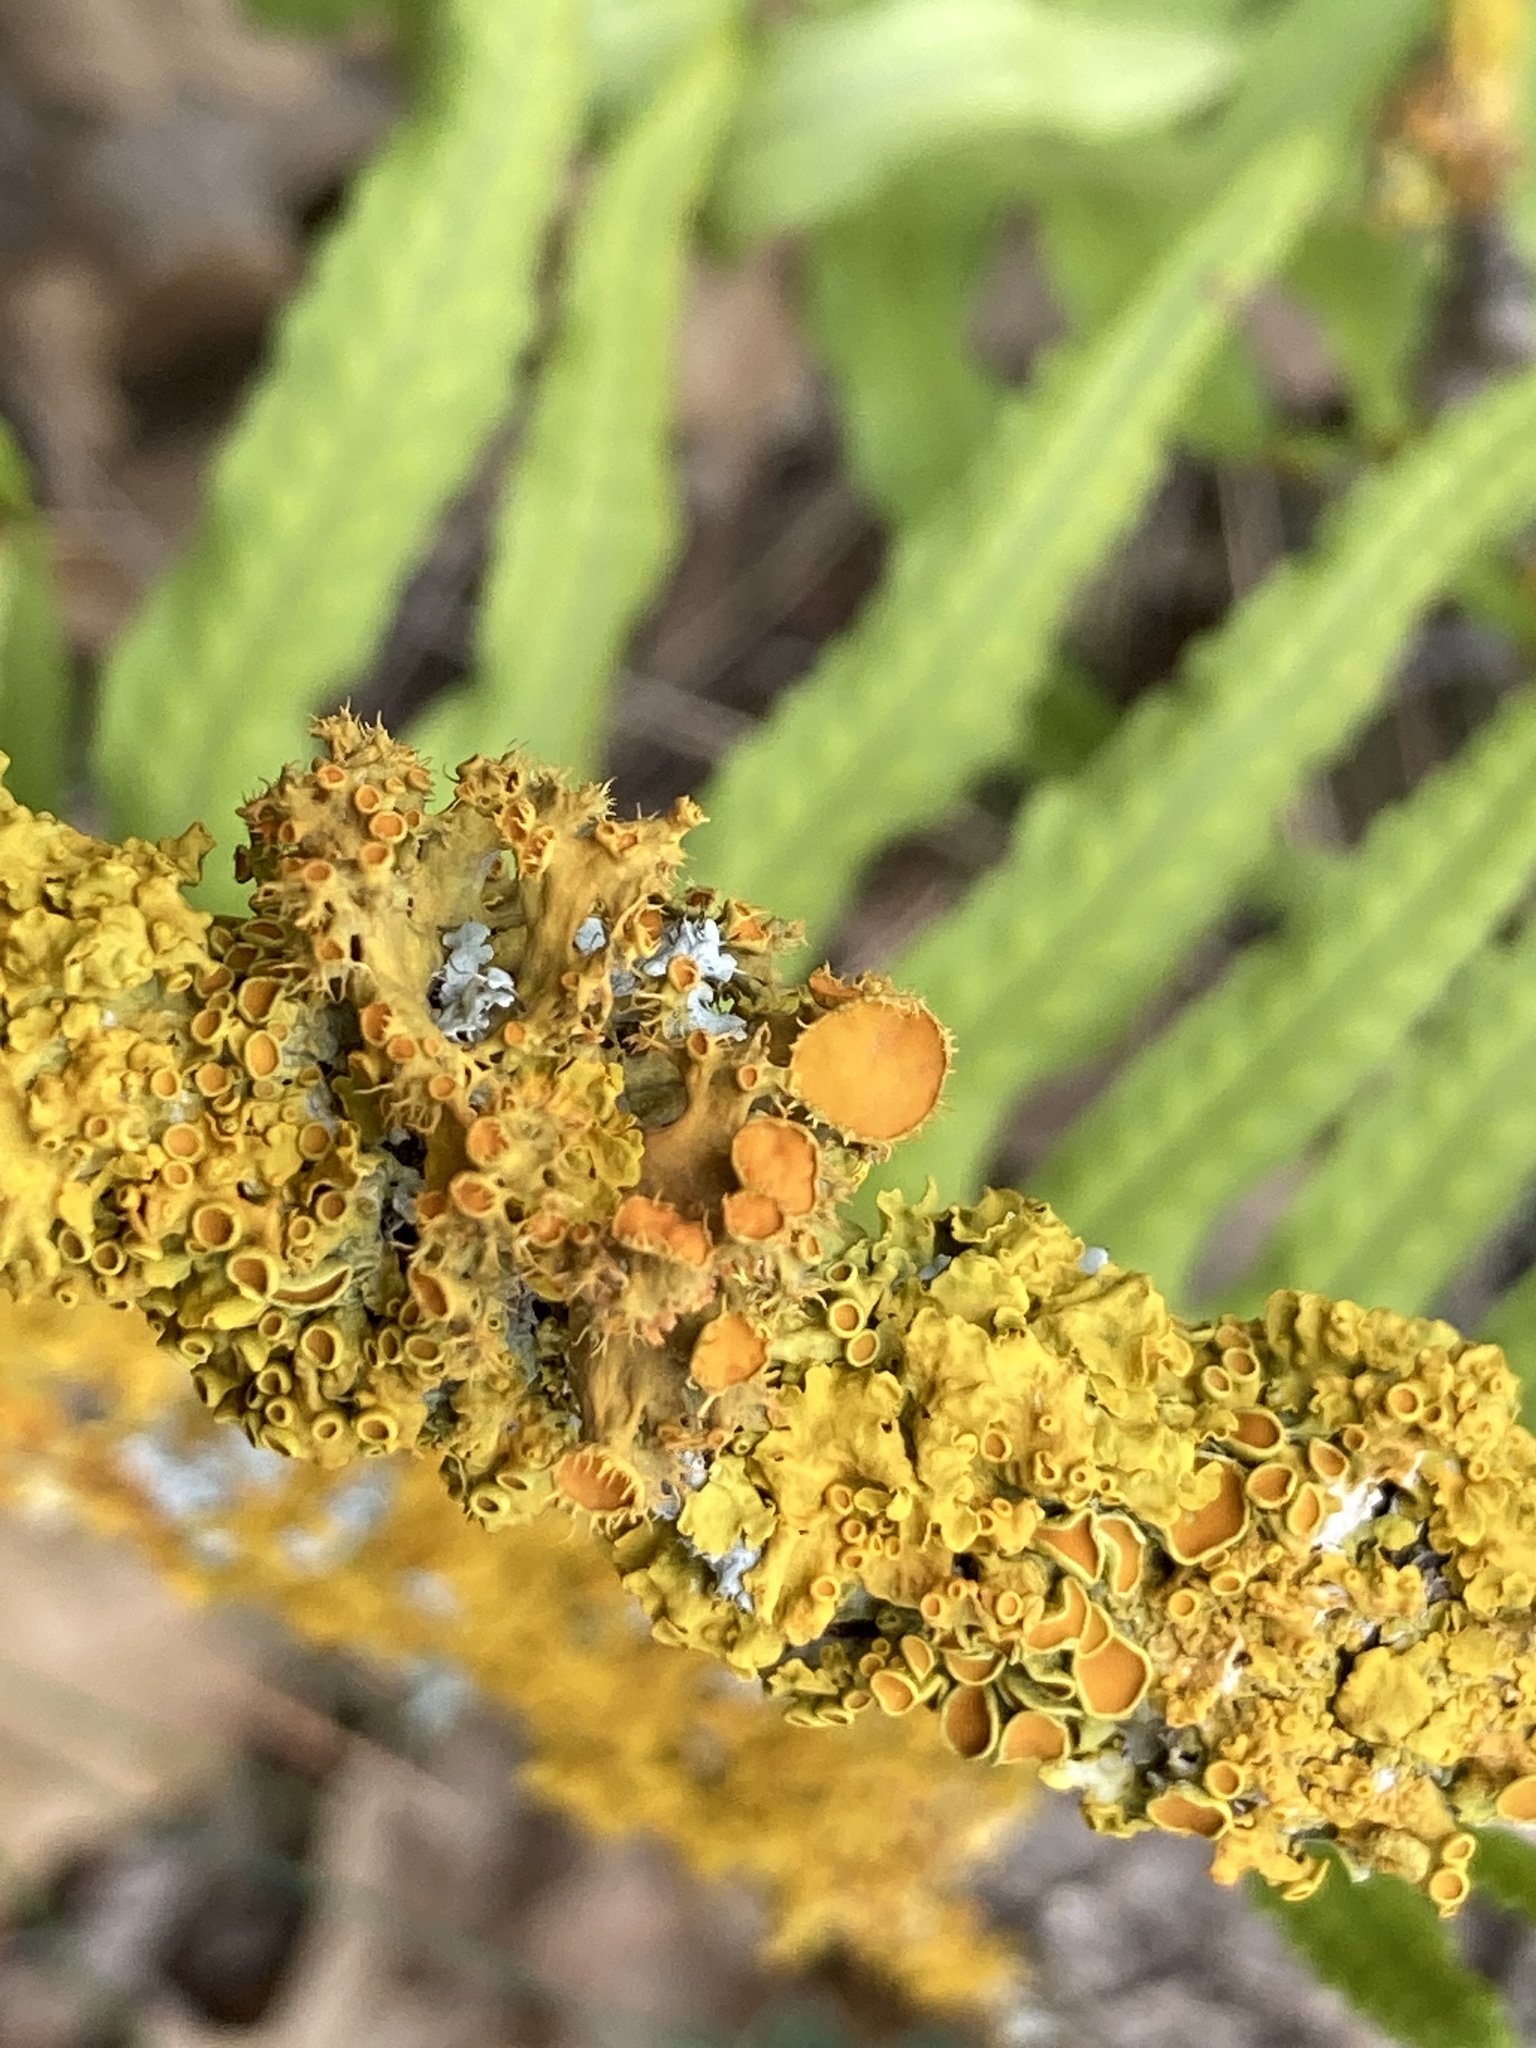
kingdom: Fungi
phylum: Ascomycota
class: Lecanoromycetes
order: Teloschistales
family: Teloschistaceae
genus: Niorma
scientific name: Niorma chrysophthalma
